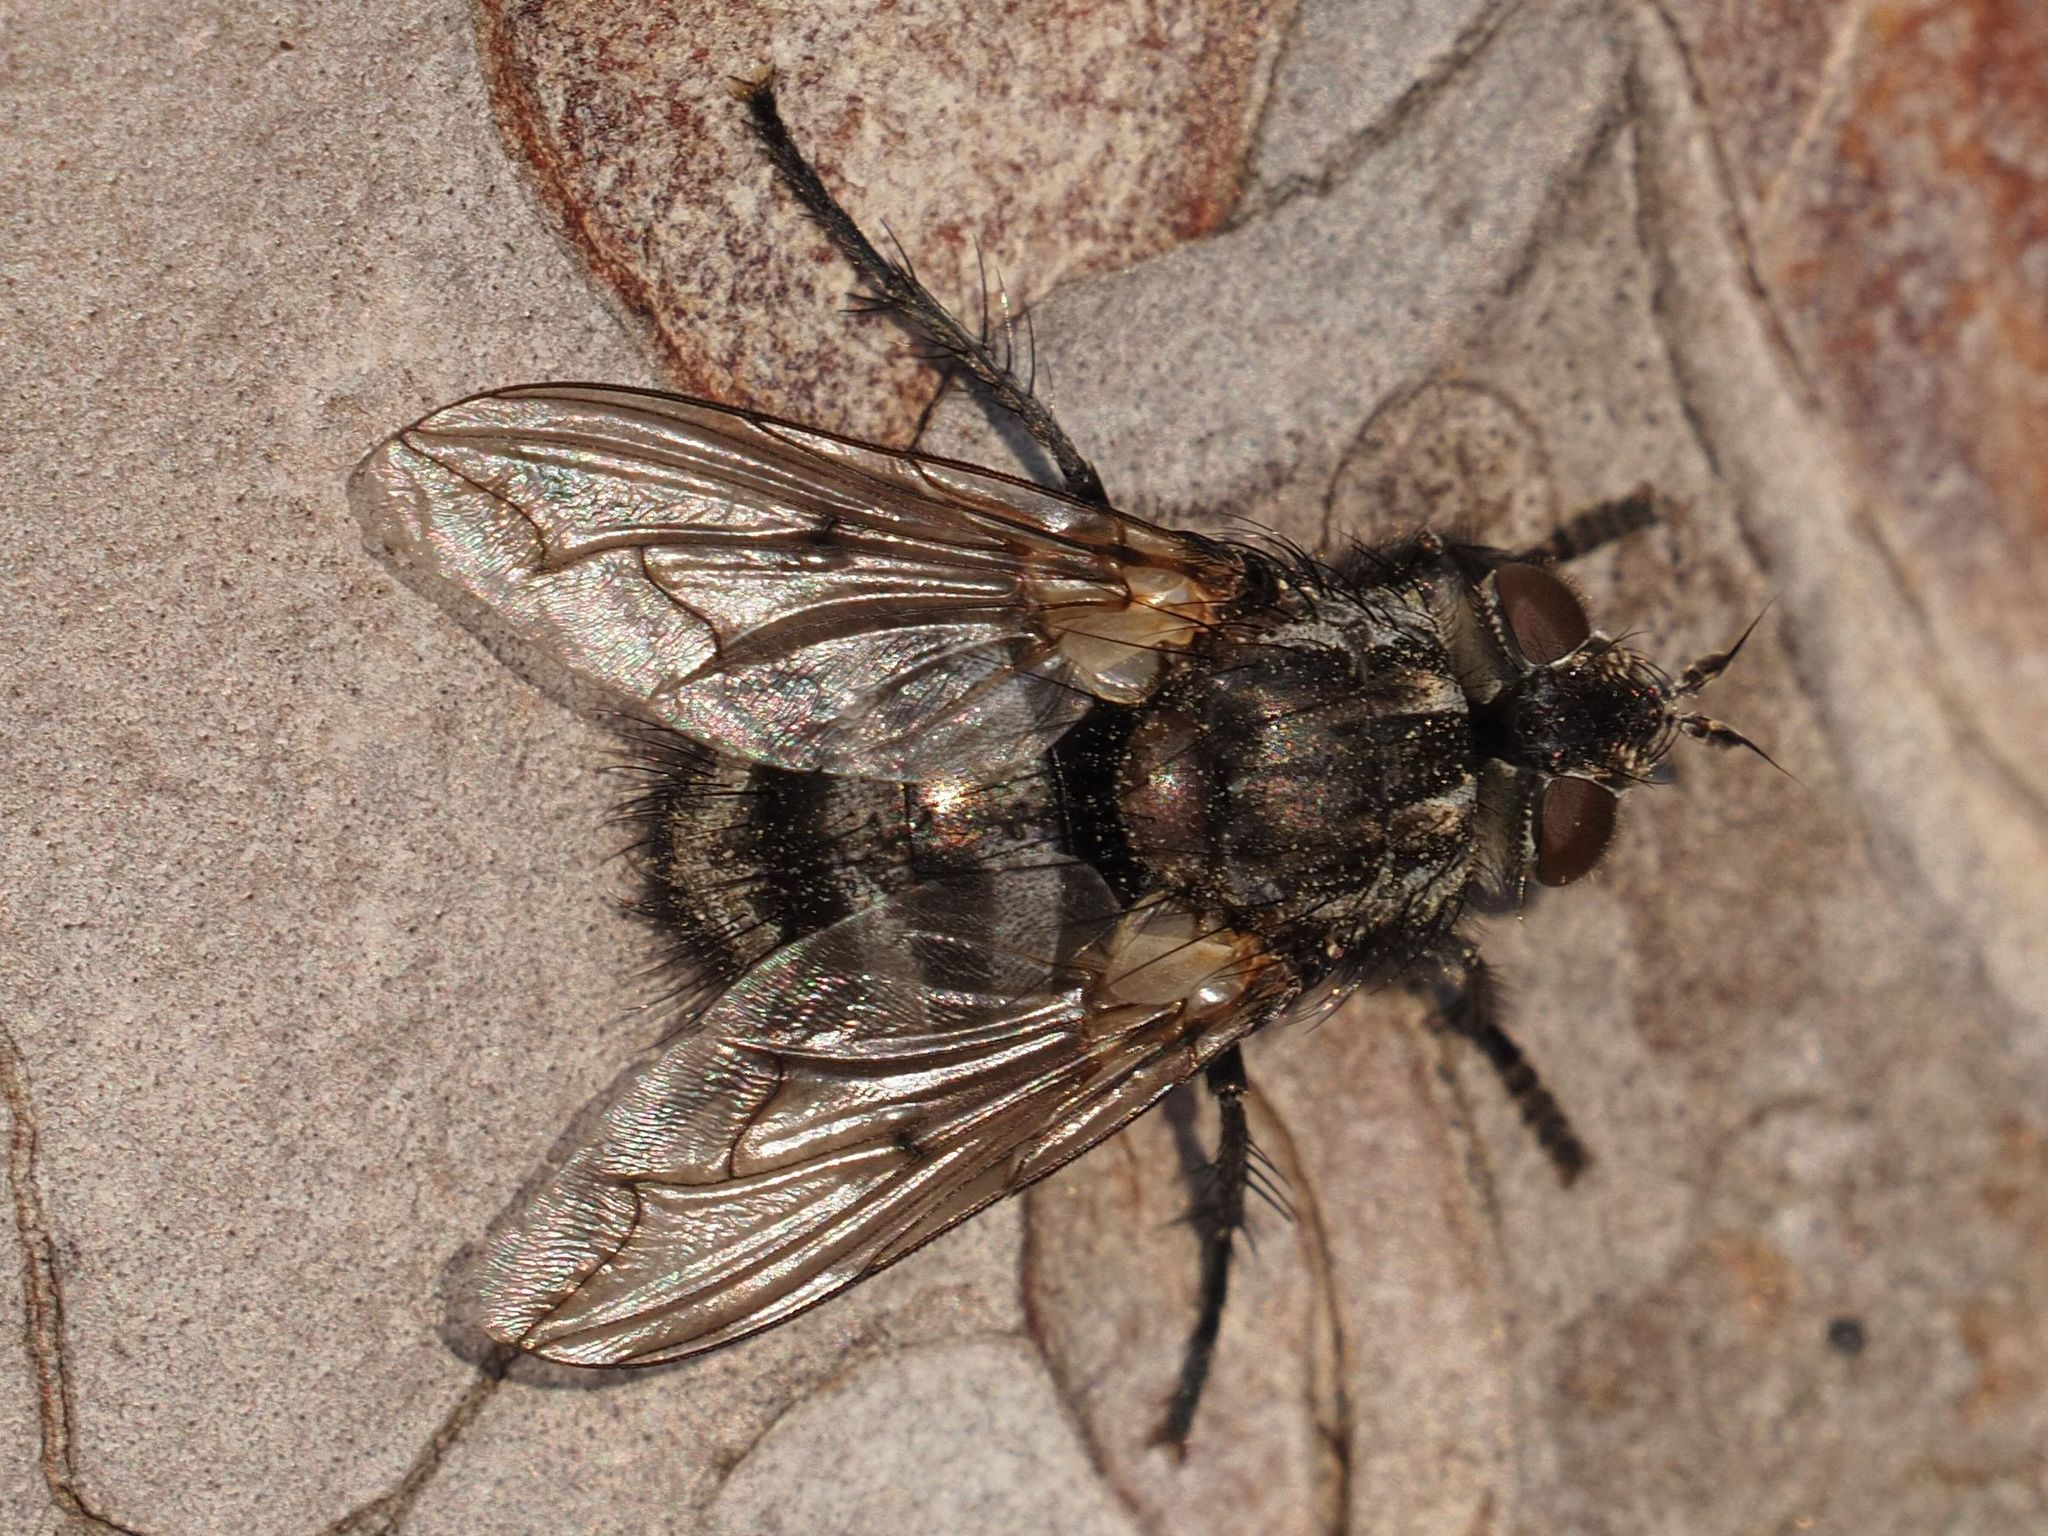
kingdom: Animalia
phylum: Arthropoda
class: Insecta
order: Diptera
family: Tachinidae
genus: Panzeria
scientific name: Panzeria puparum
